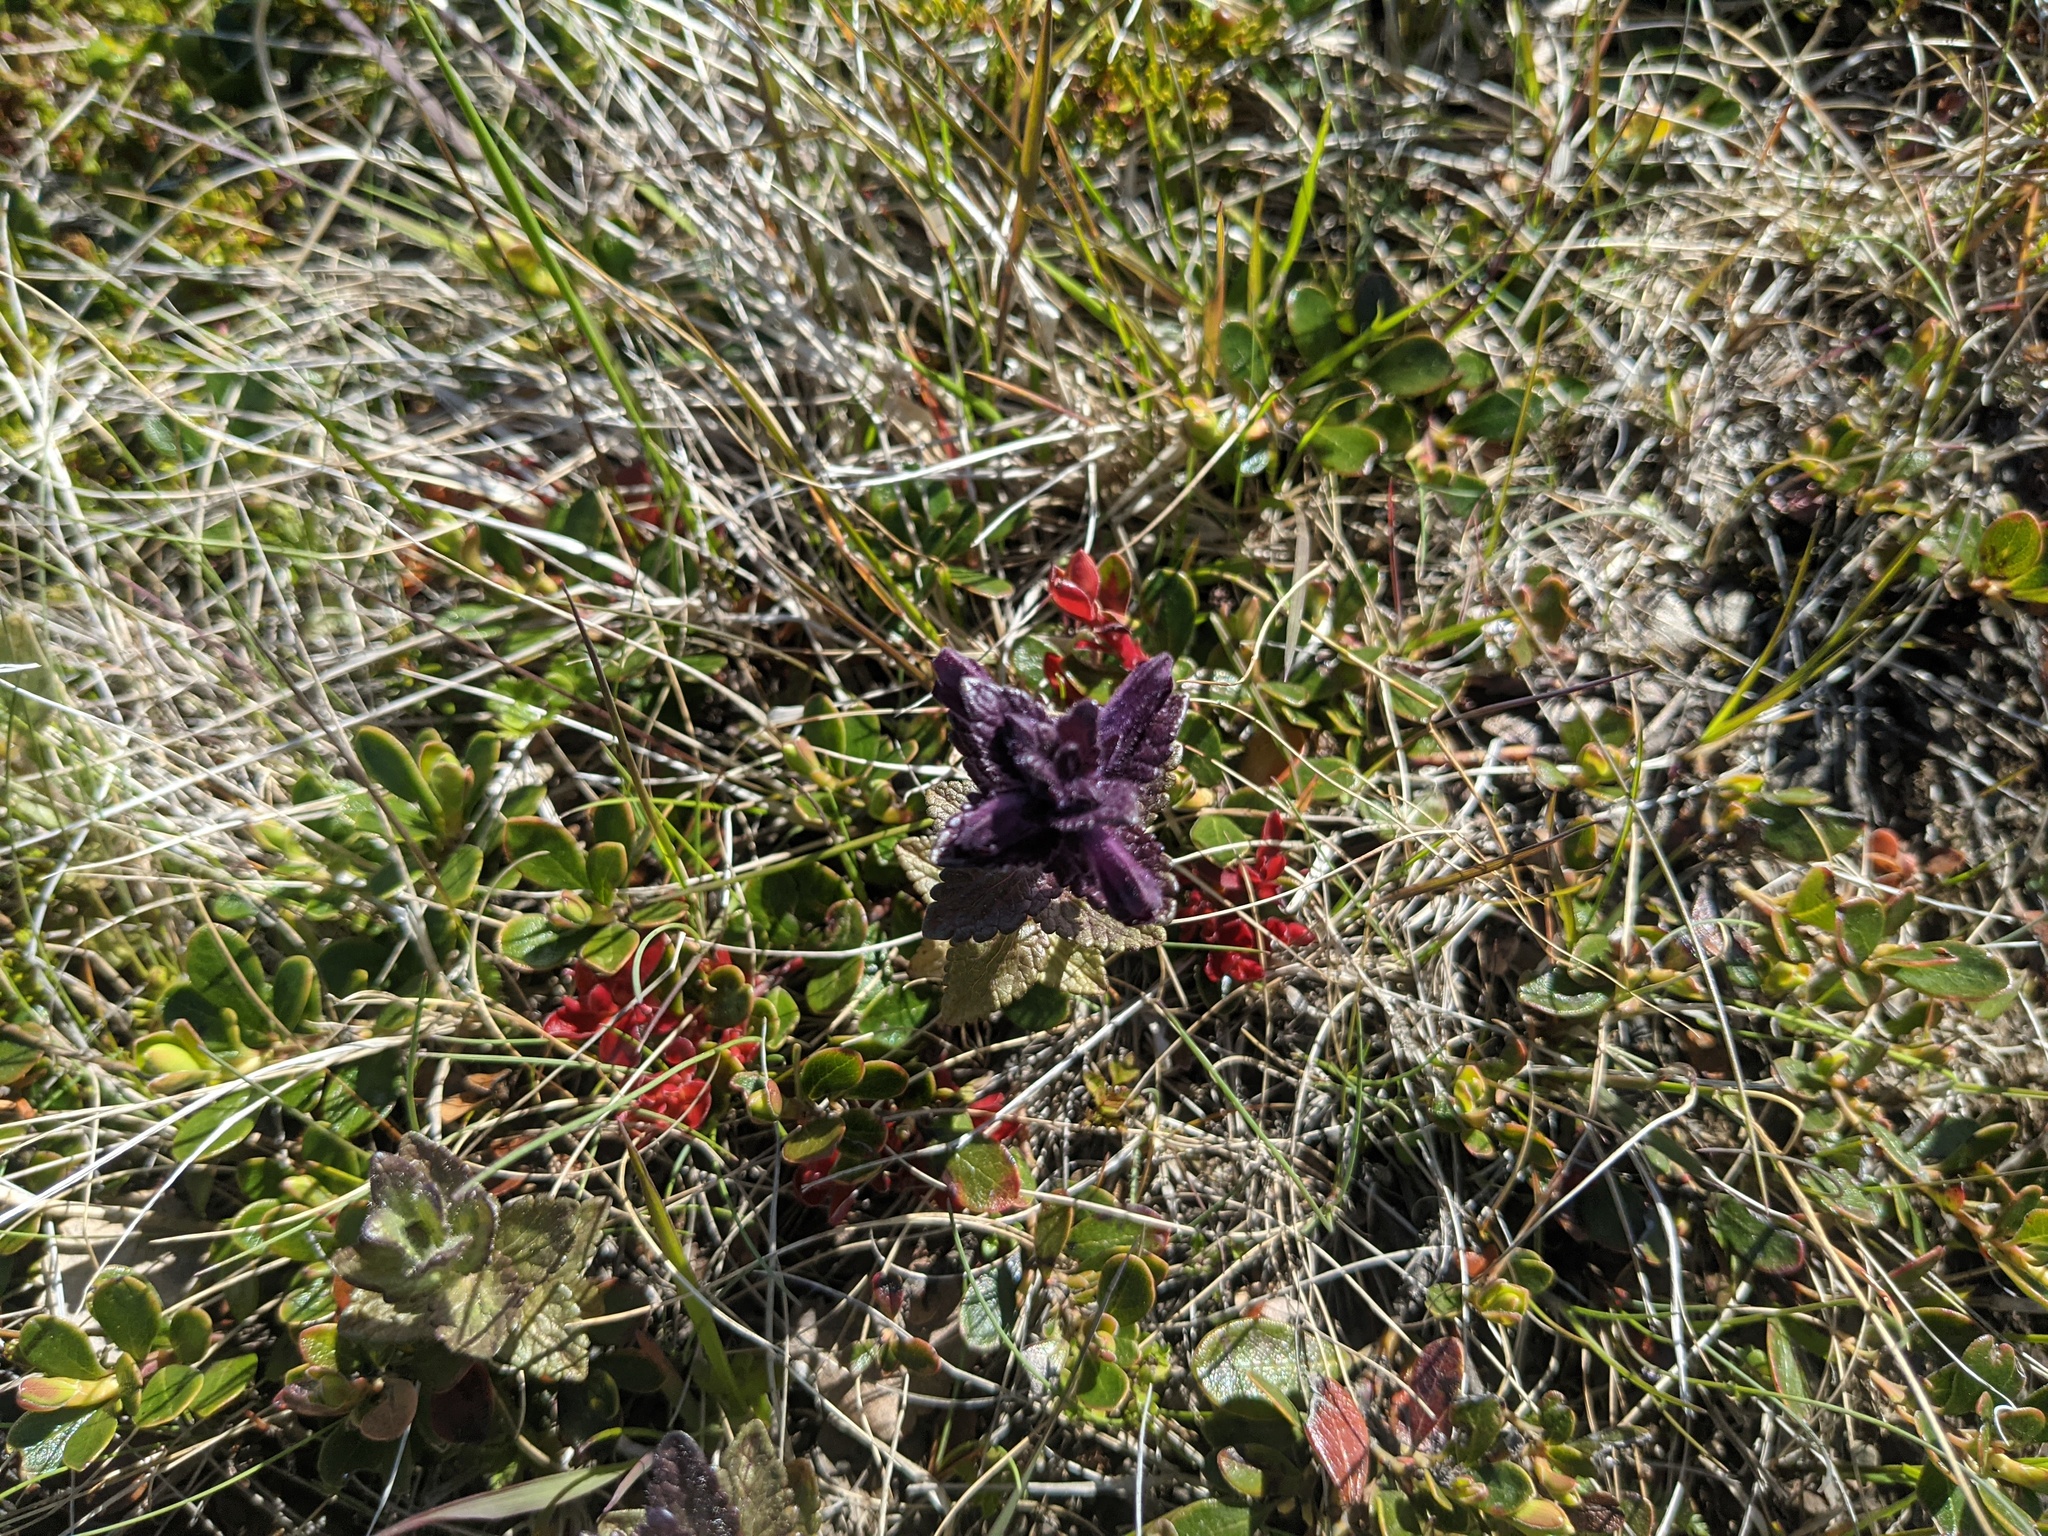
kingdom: Plantae
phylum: Tracheophyta
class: Magnoliopsida
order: Lamiales
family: Orobanchaceae
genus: Bartsia
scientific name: Bartsia alpina
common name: Alpine bartsia
